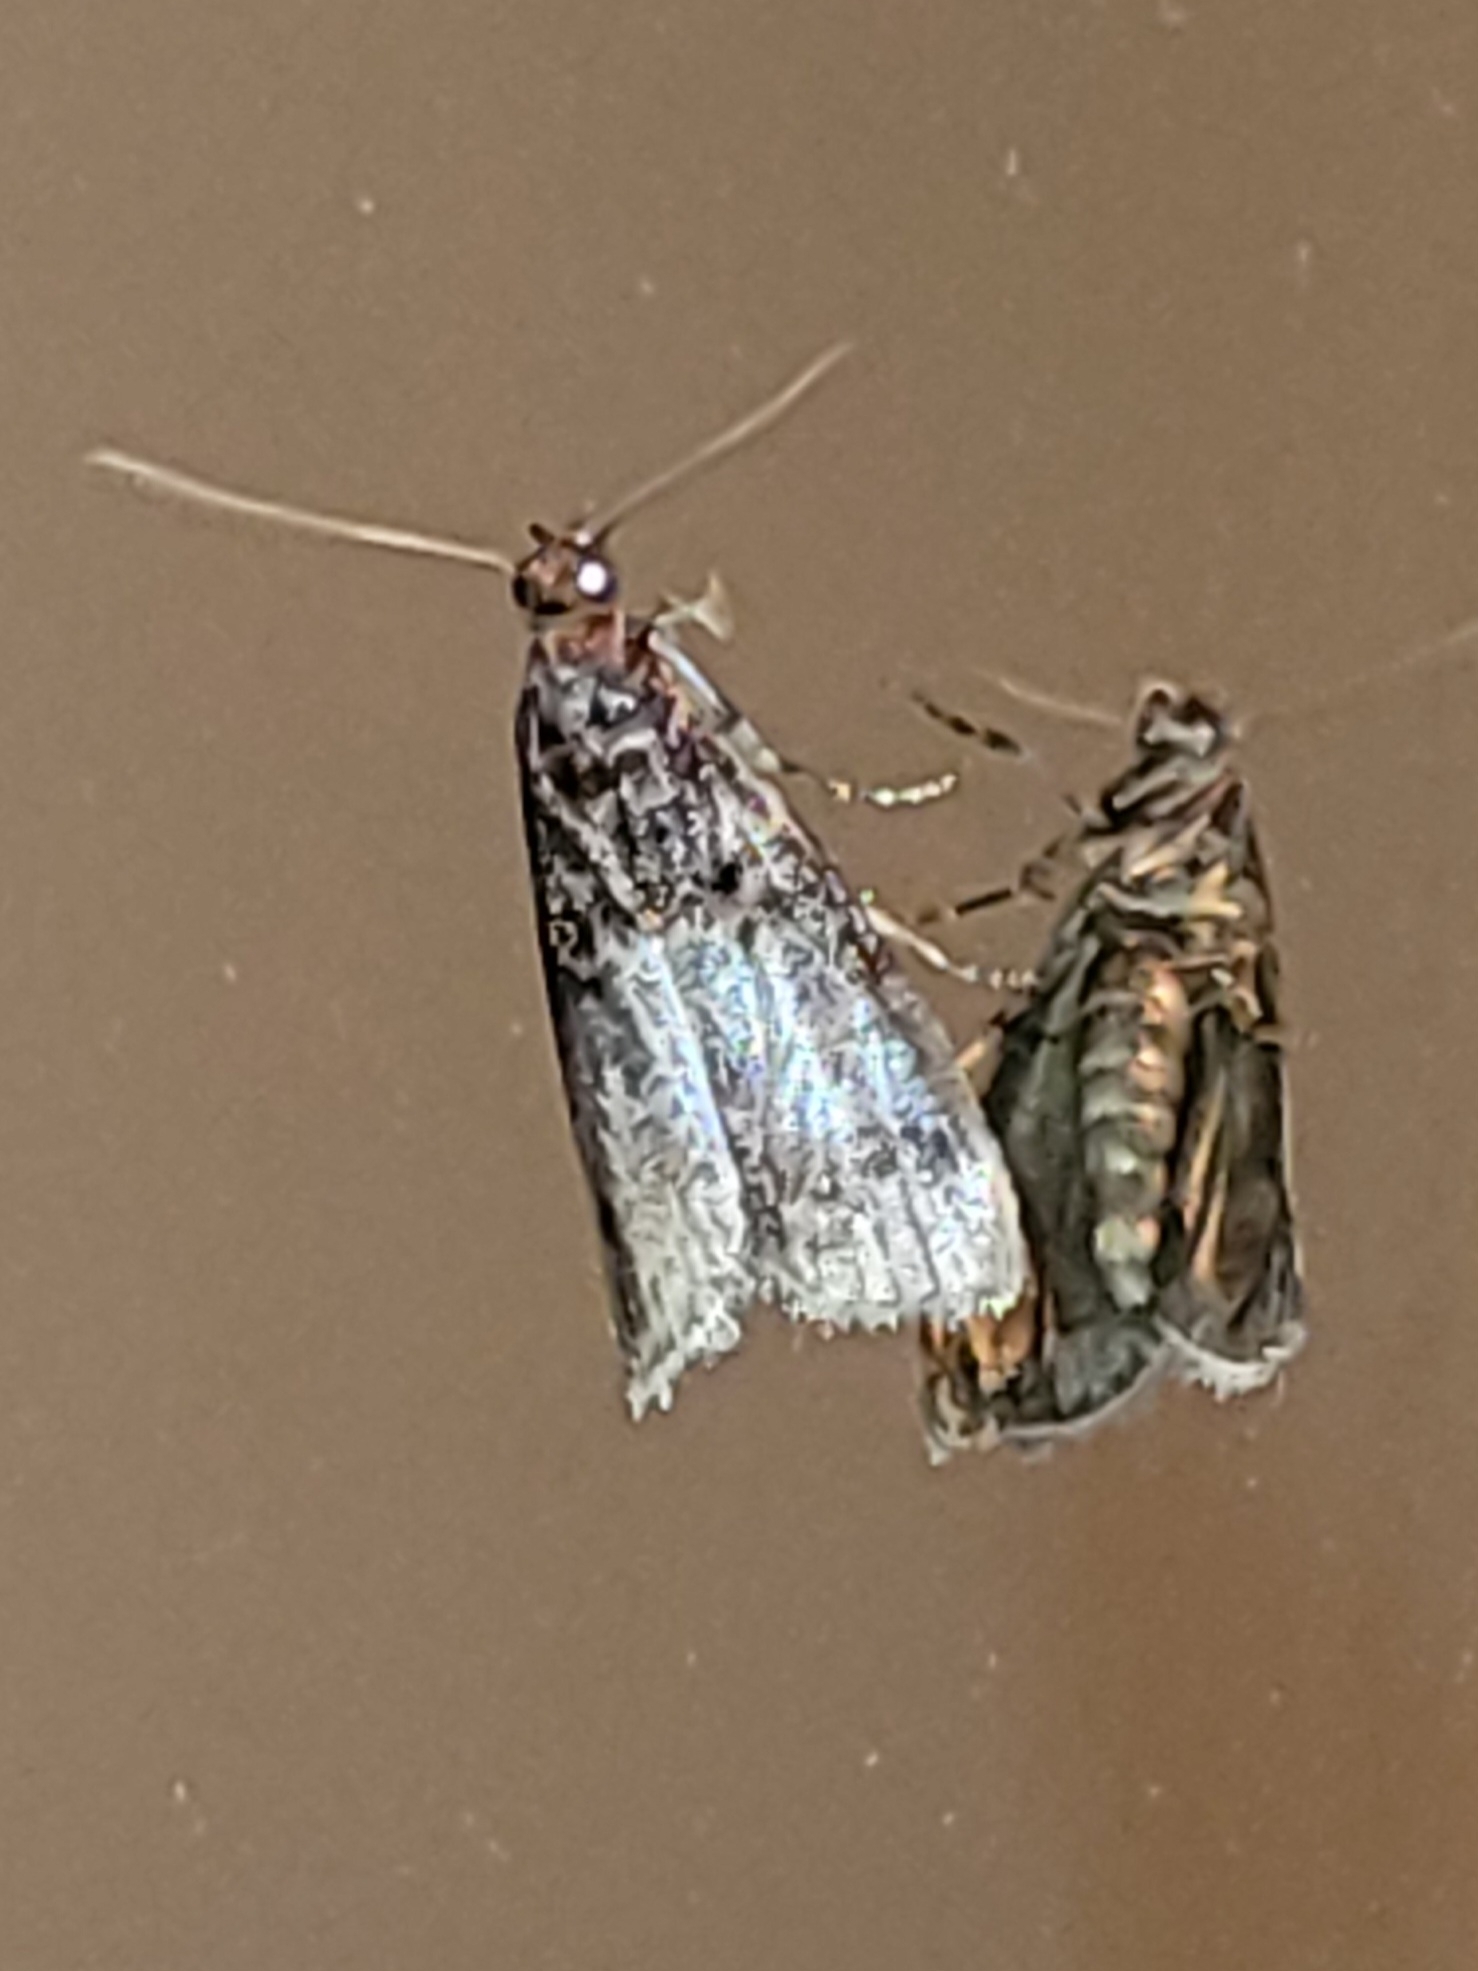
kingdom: Animalia
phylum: Arthropoda
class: Insecta
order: Lepidoptera
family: Pyralidae
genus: Acrobasis
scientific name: Acrobasis advenella
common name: Grey knot-horn
